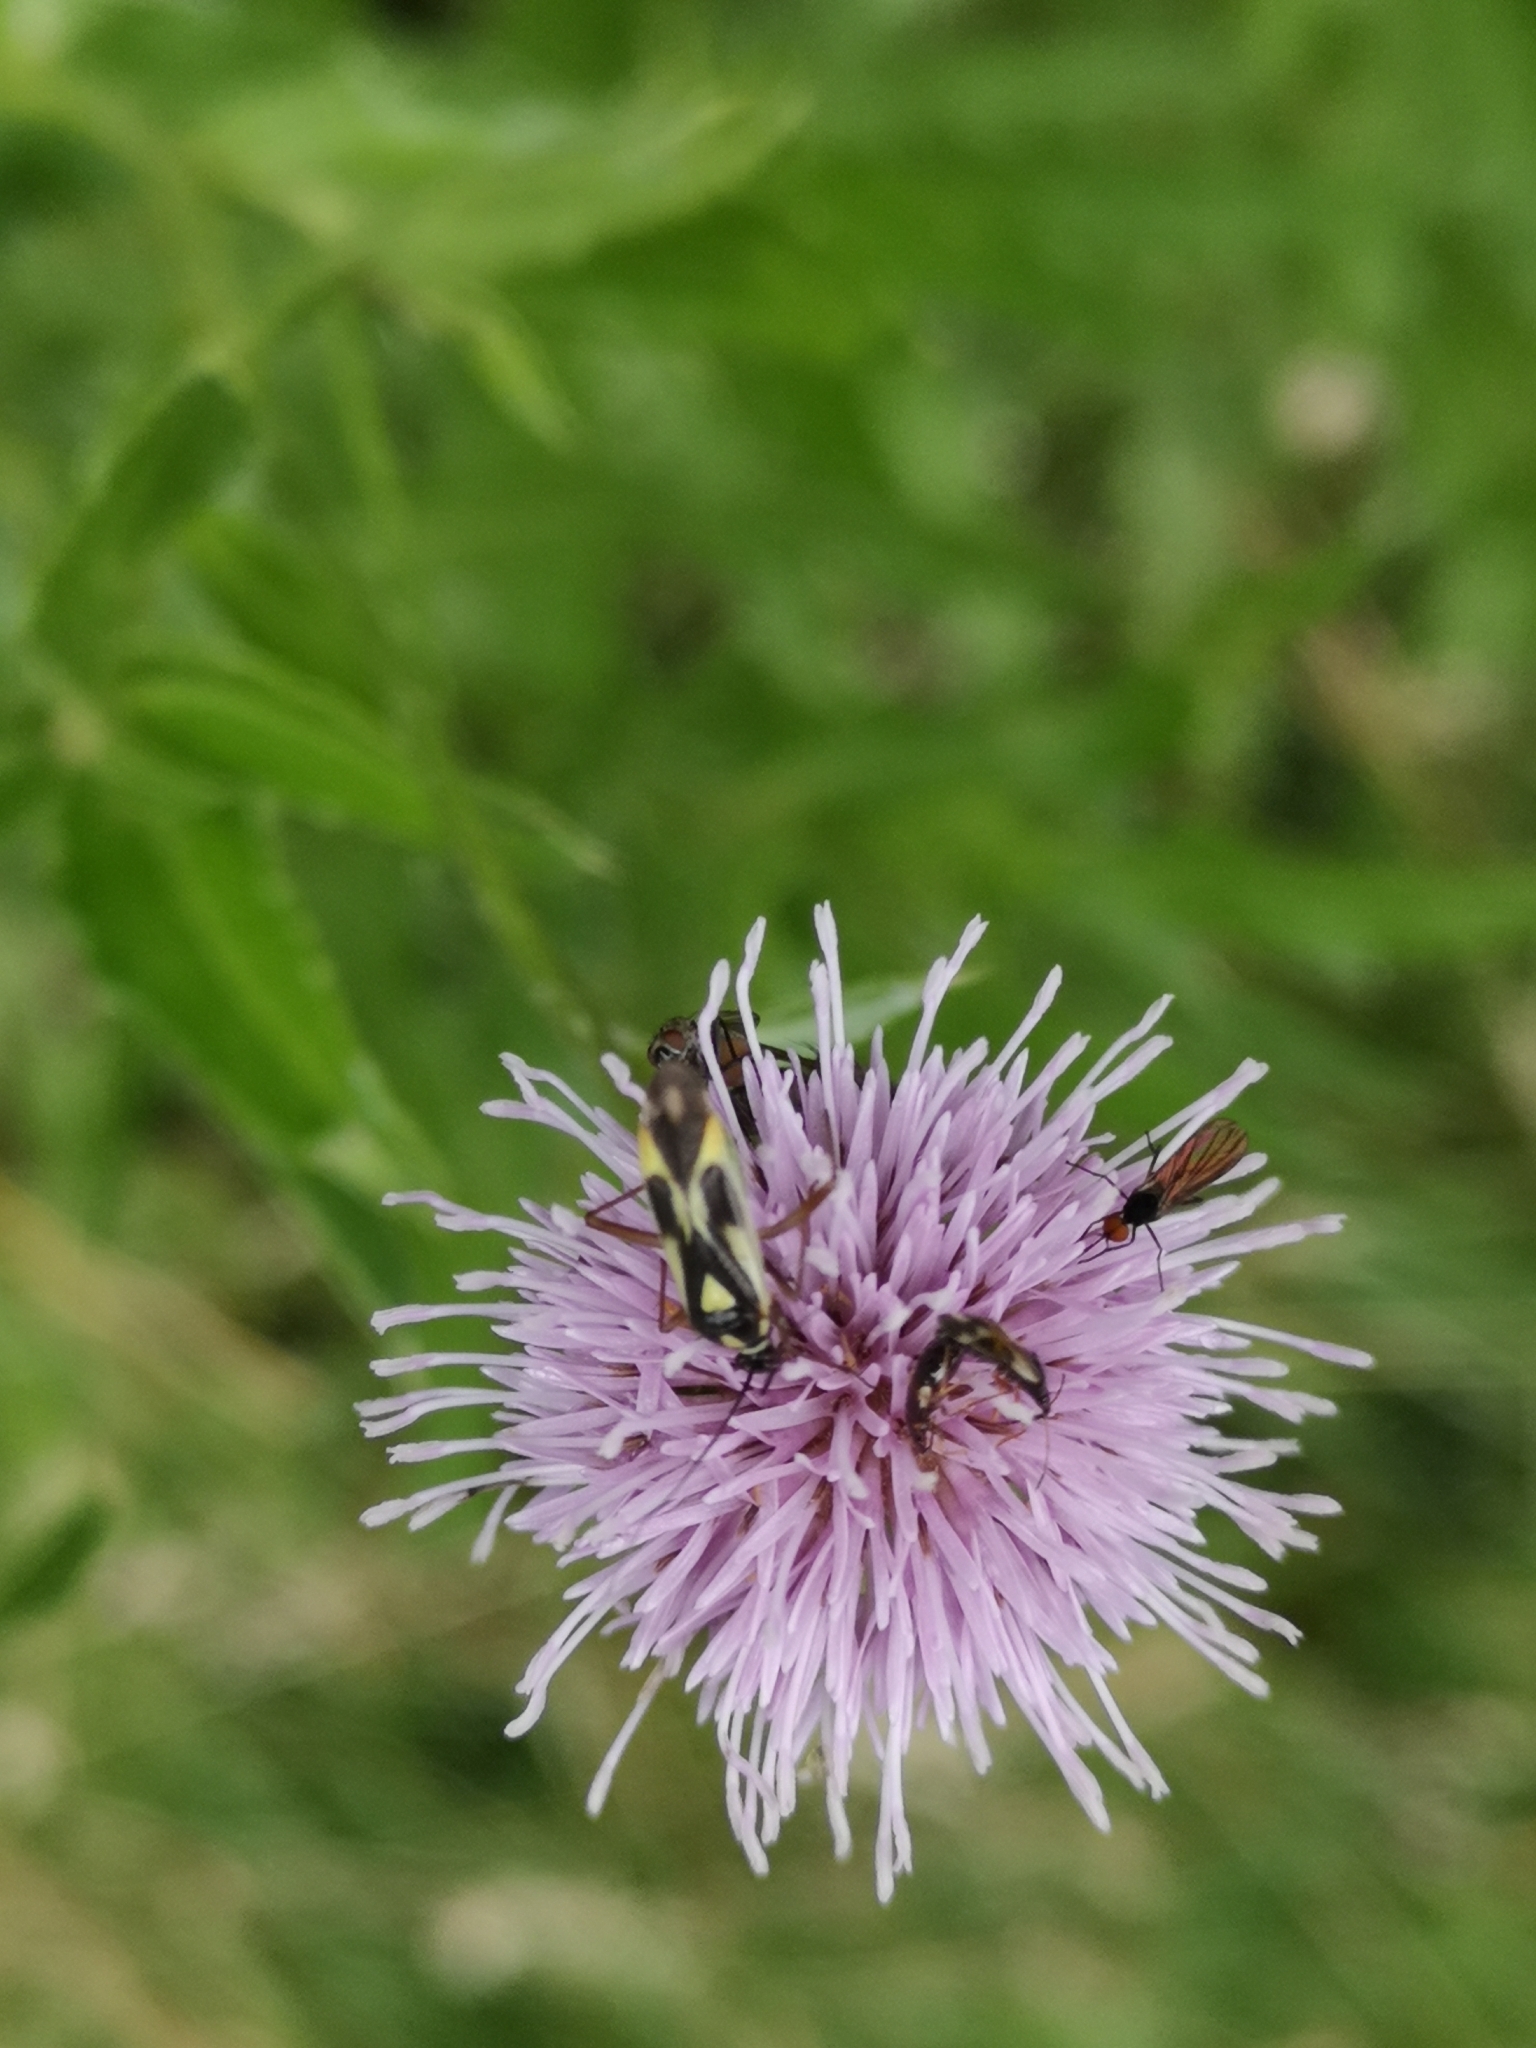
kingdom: Animalia
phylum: Arthropoda
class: Insecta
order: Hemiptera
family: Miridae
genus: Grypocoris
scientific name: Grypocoris stysi
